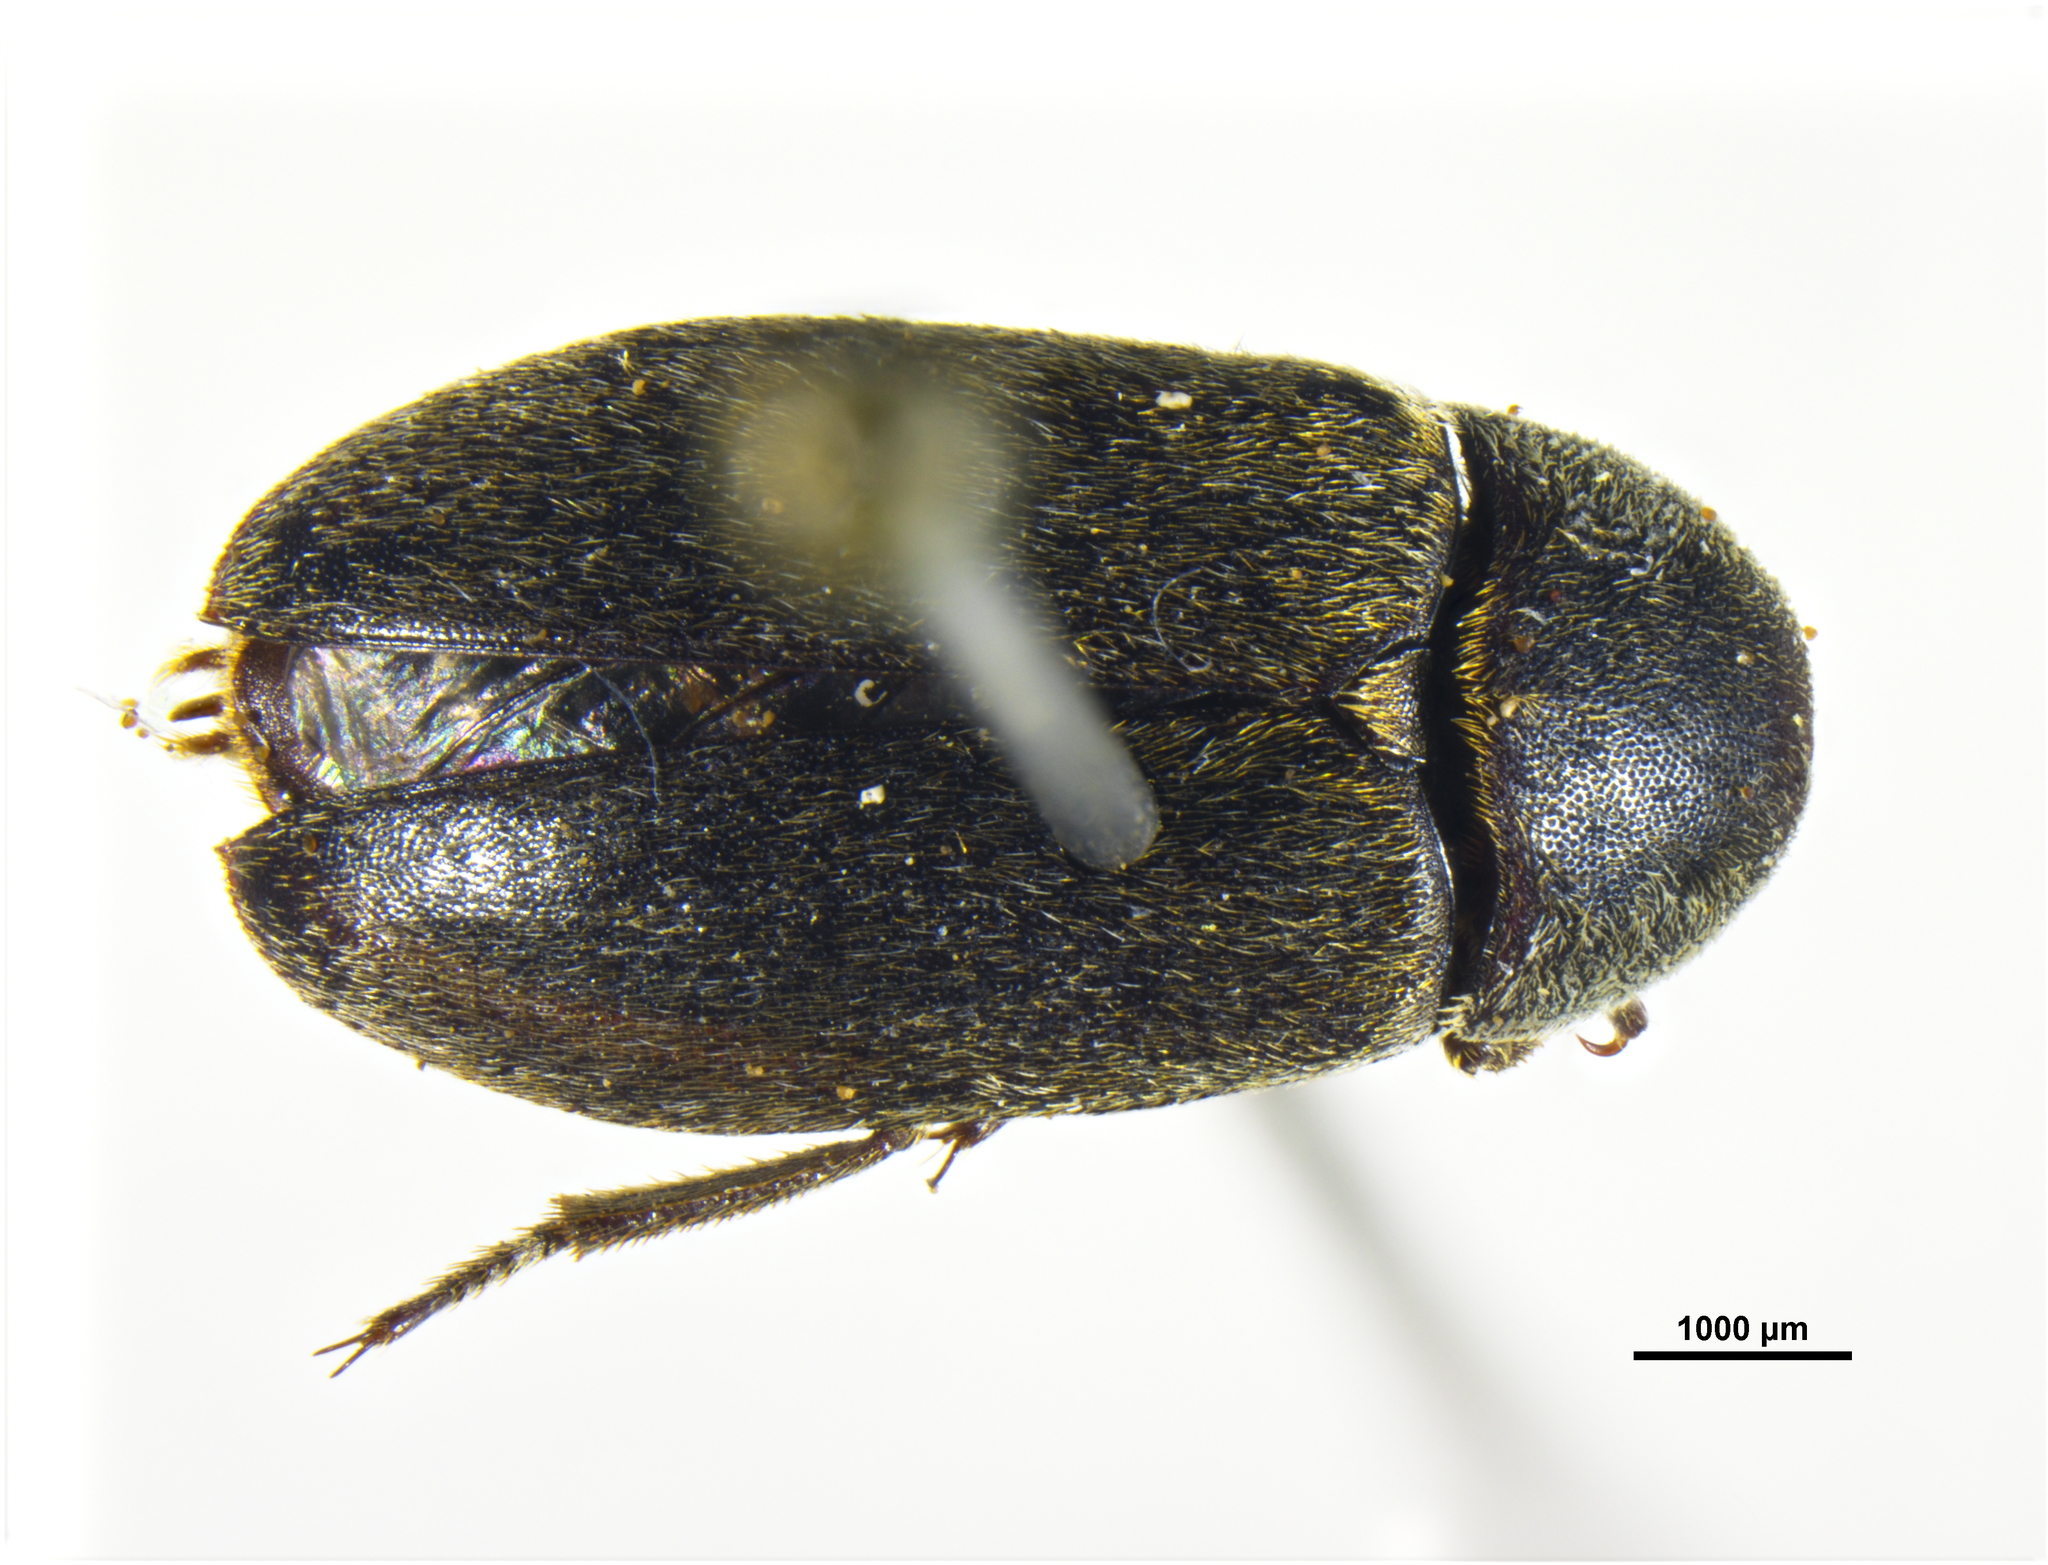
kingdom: Animalia
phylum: Arthropoda
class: Insecta
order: Coleoptera
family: Dermestidae
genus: Dermestes
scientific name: Dermestes maculatus
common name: Hide beetle
